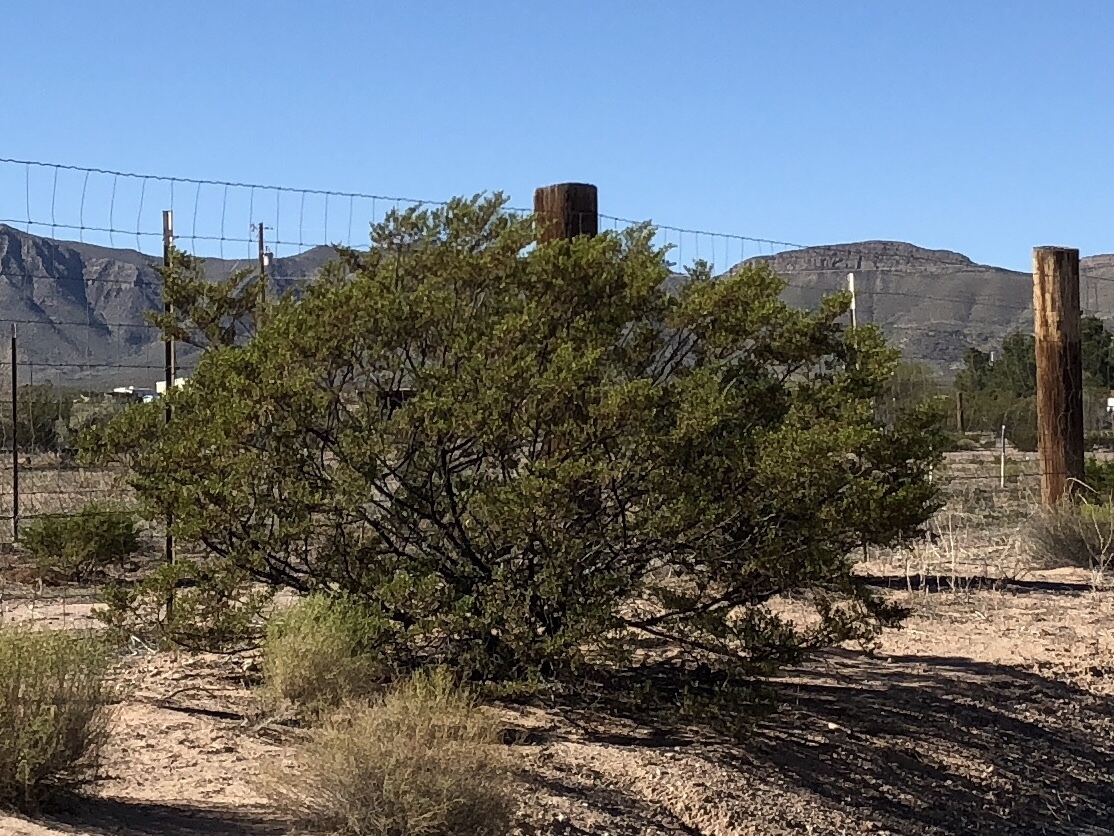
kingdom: Plantae
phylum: Tracheophyta
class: Magnoliopsida
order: Zygophyllales
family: Zygophyllaceae
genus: Larrea
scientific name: Larrea tridentata
